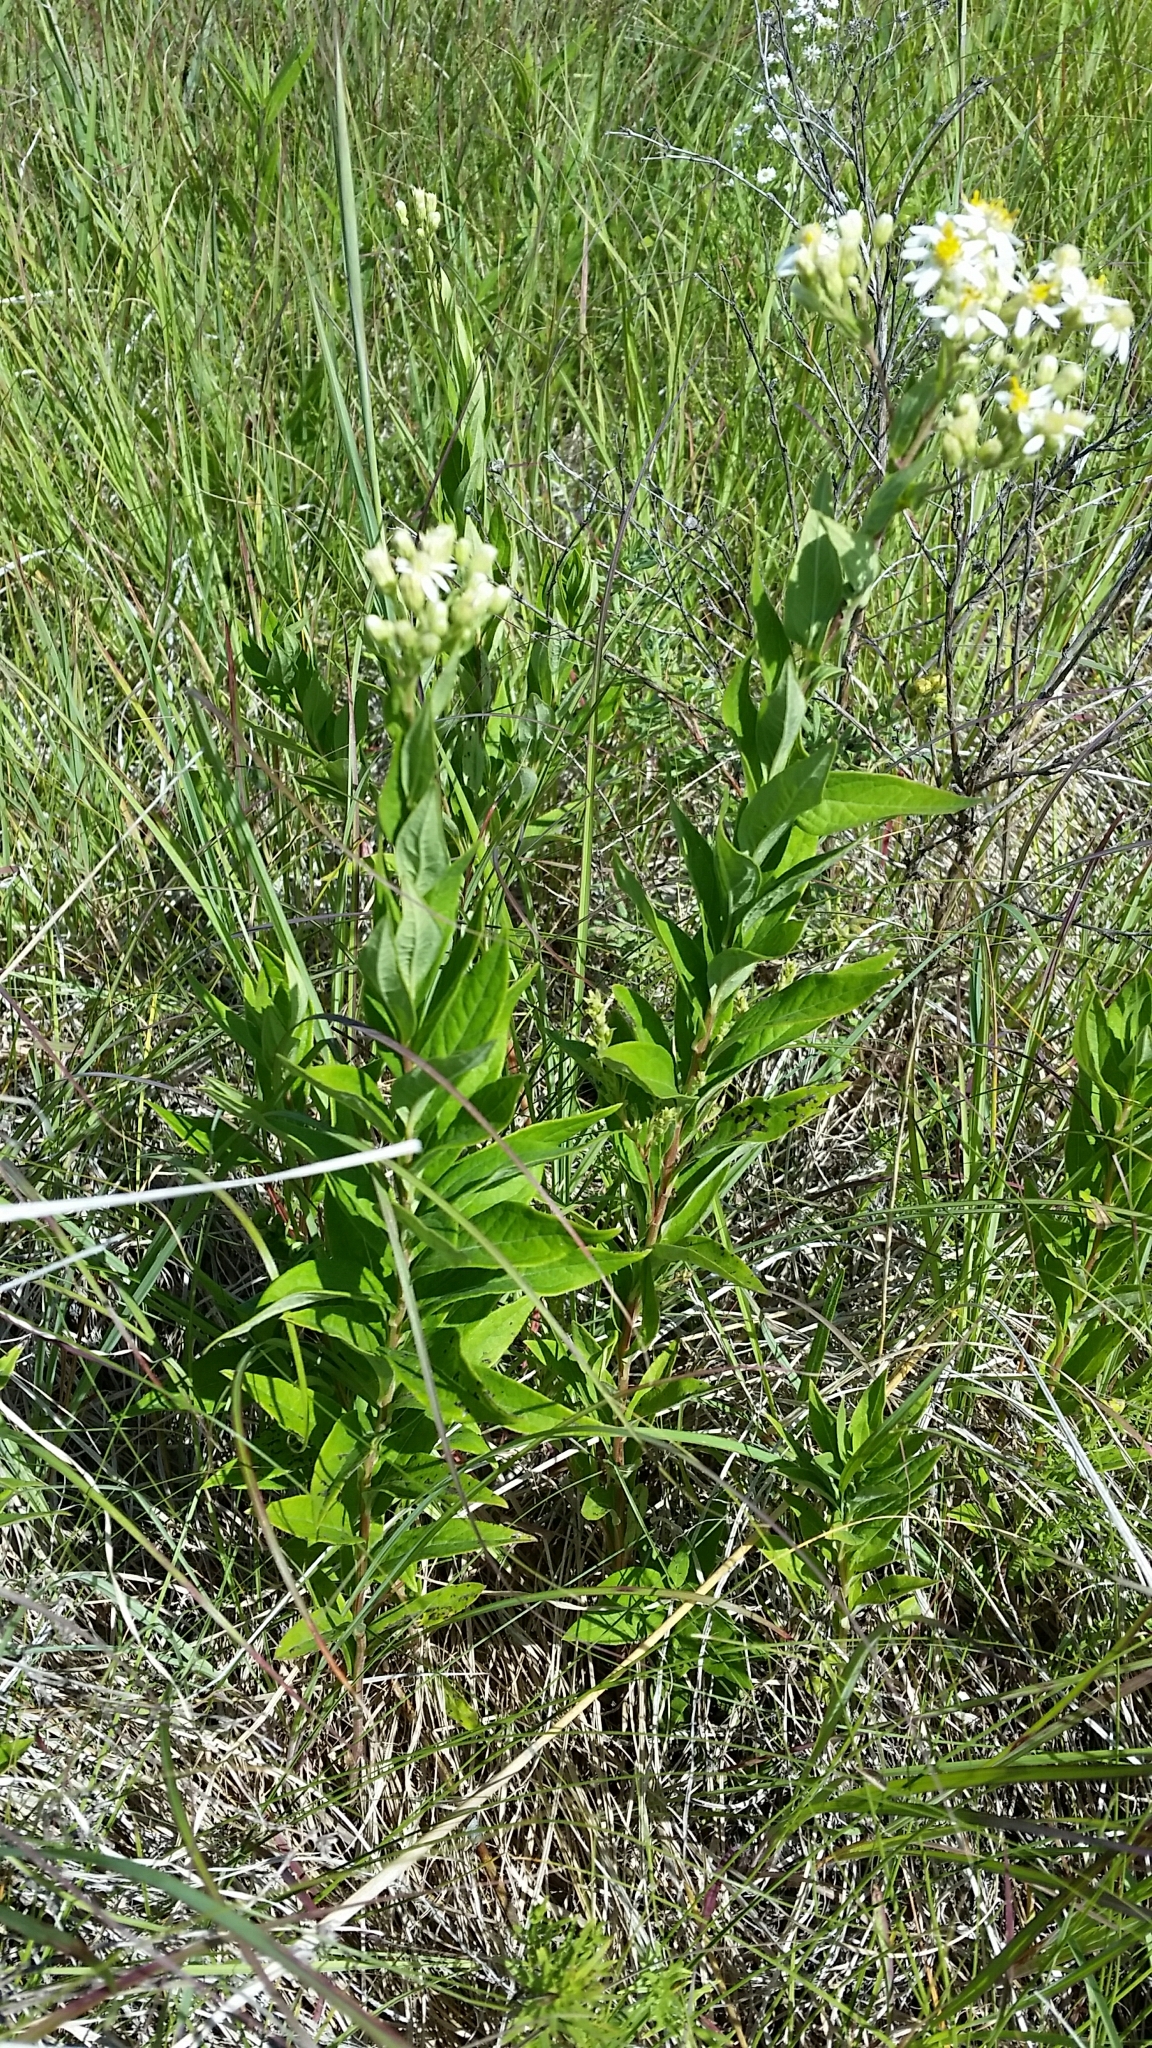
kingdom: Plantae
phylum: Tracheophyta
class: Magnoliopsida
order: Asterales
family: Asteraceae
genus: Doellingeria
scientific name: Doellingeria umbellata
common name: Flat-top white aster
